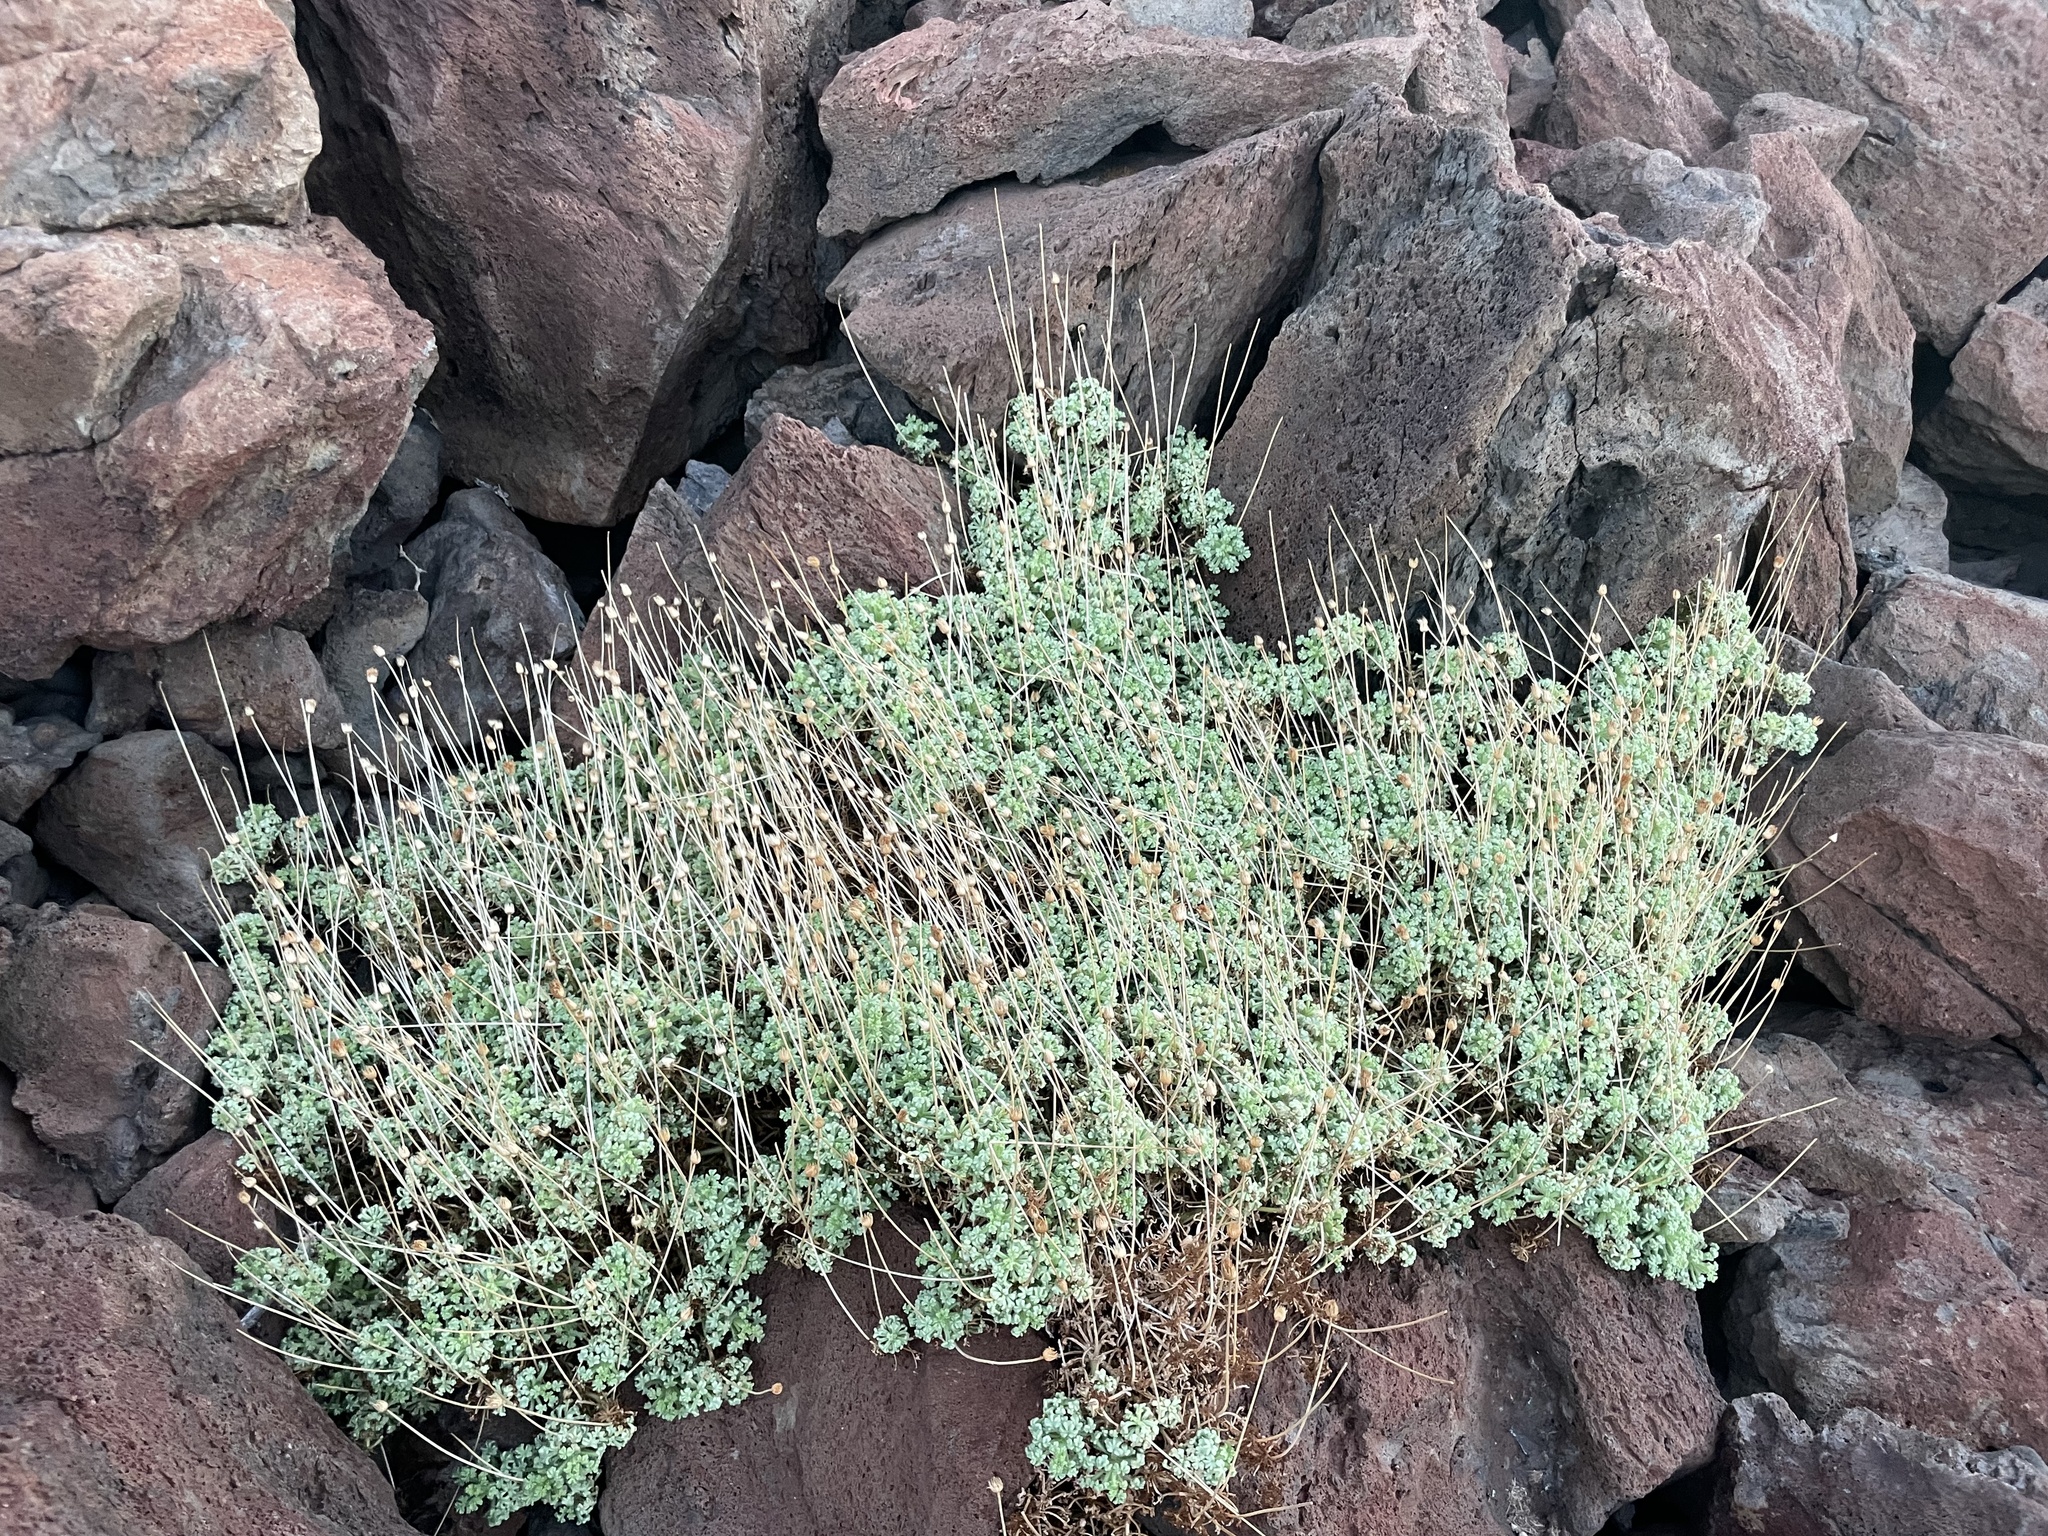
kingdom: Plantae
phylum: Tracheophyta
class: Magnoliopsida
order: Asterales
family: Asteraceae
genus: Hofmeisteria
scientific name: Hofmeisteria fasciculata
